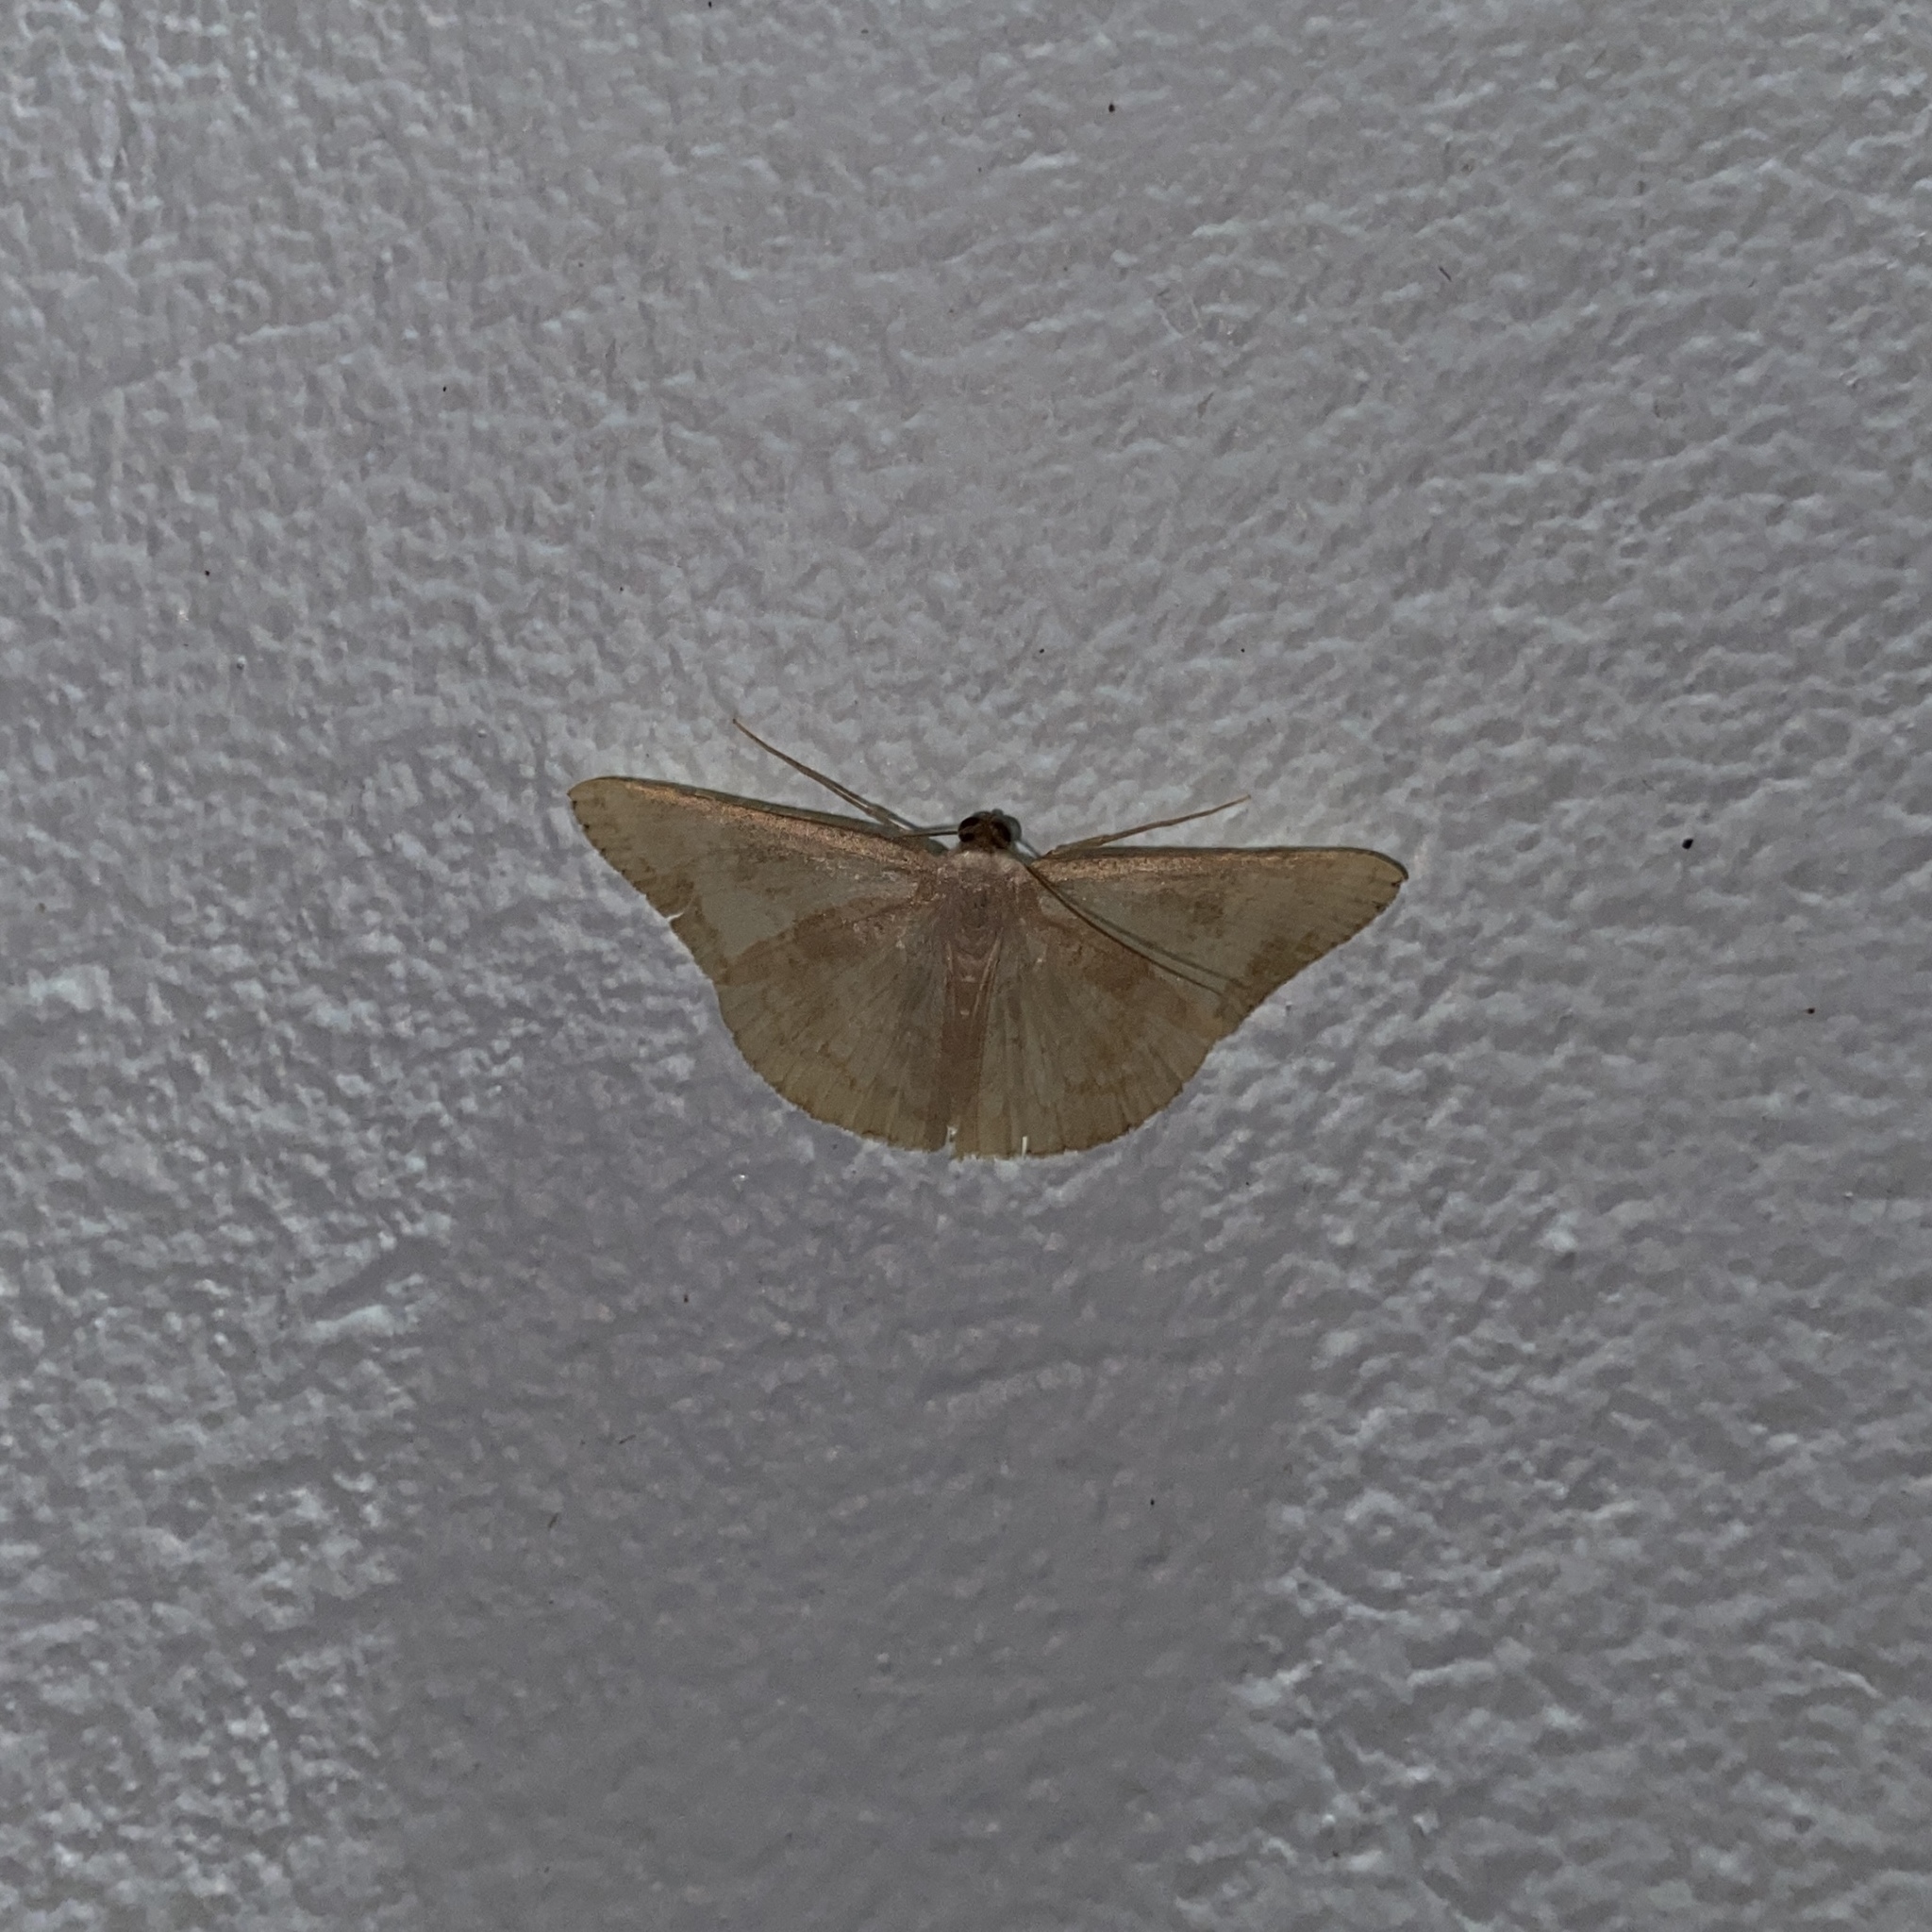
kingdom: Animalia
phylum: Arthropoda
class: Insecta
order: Lepidoptera
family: Geometridae
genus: Pycnoneura
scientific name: Pycnoneura protrusilinea
